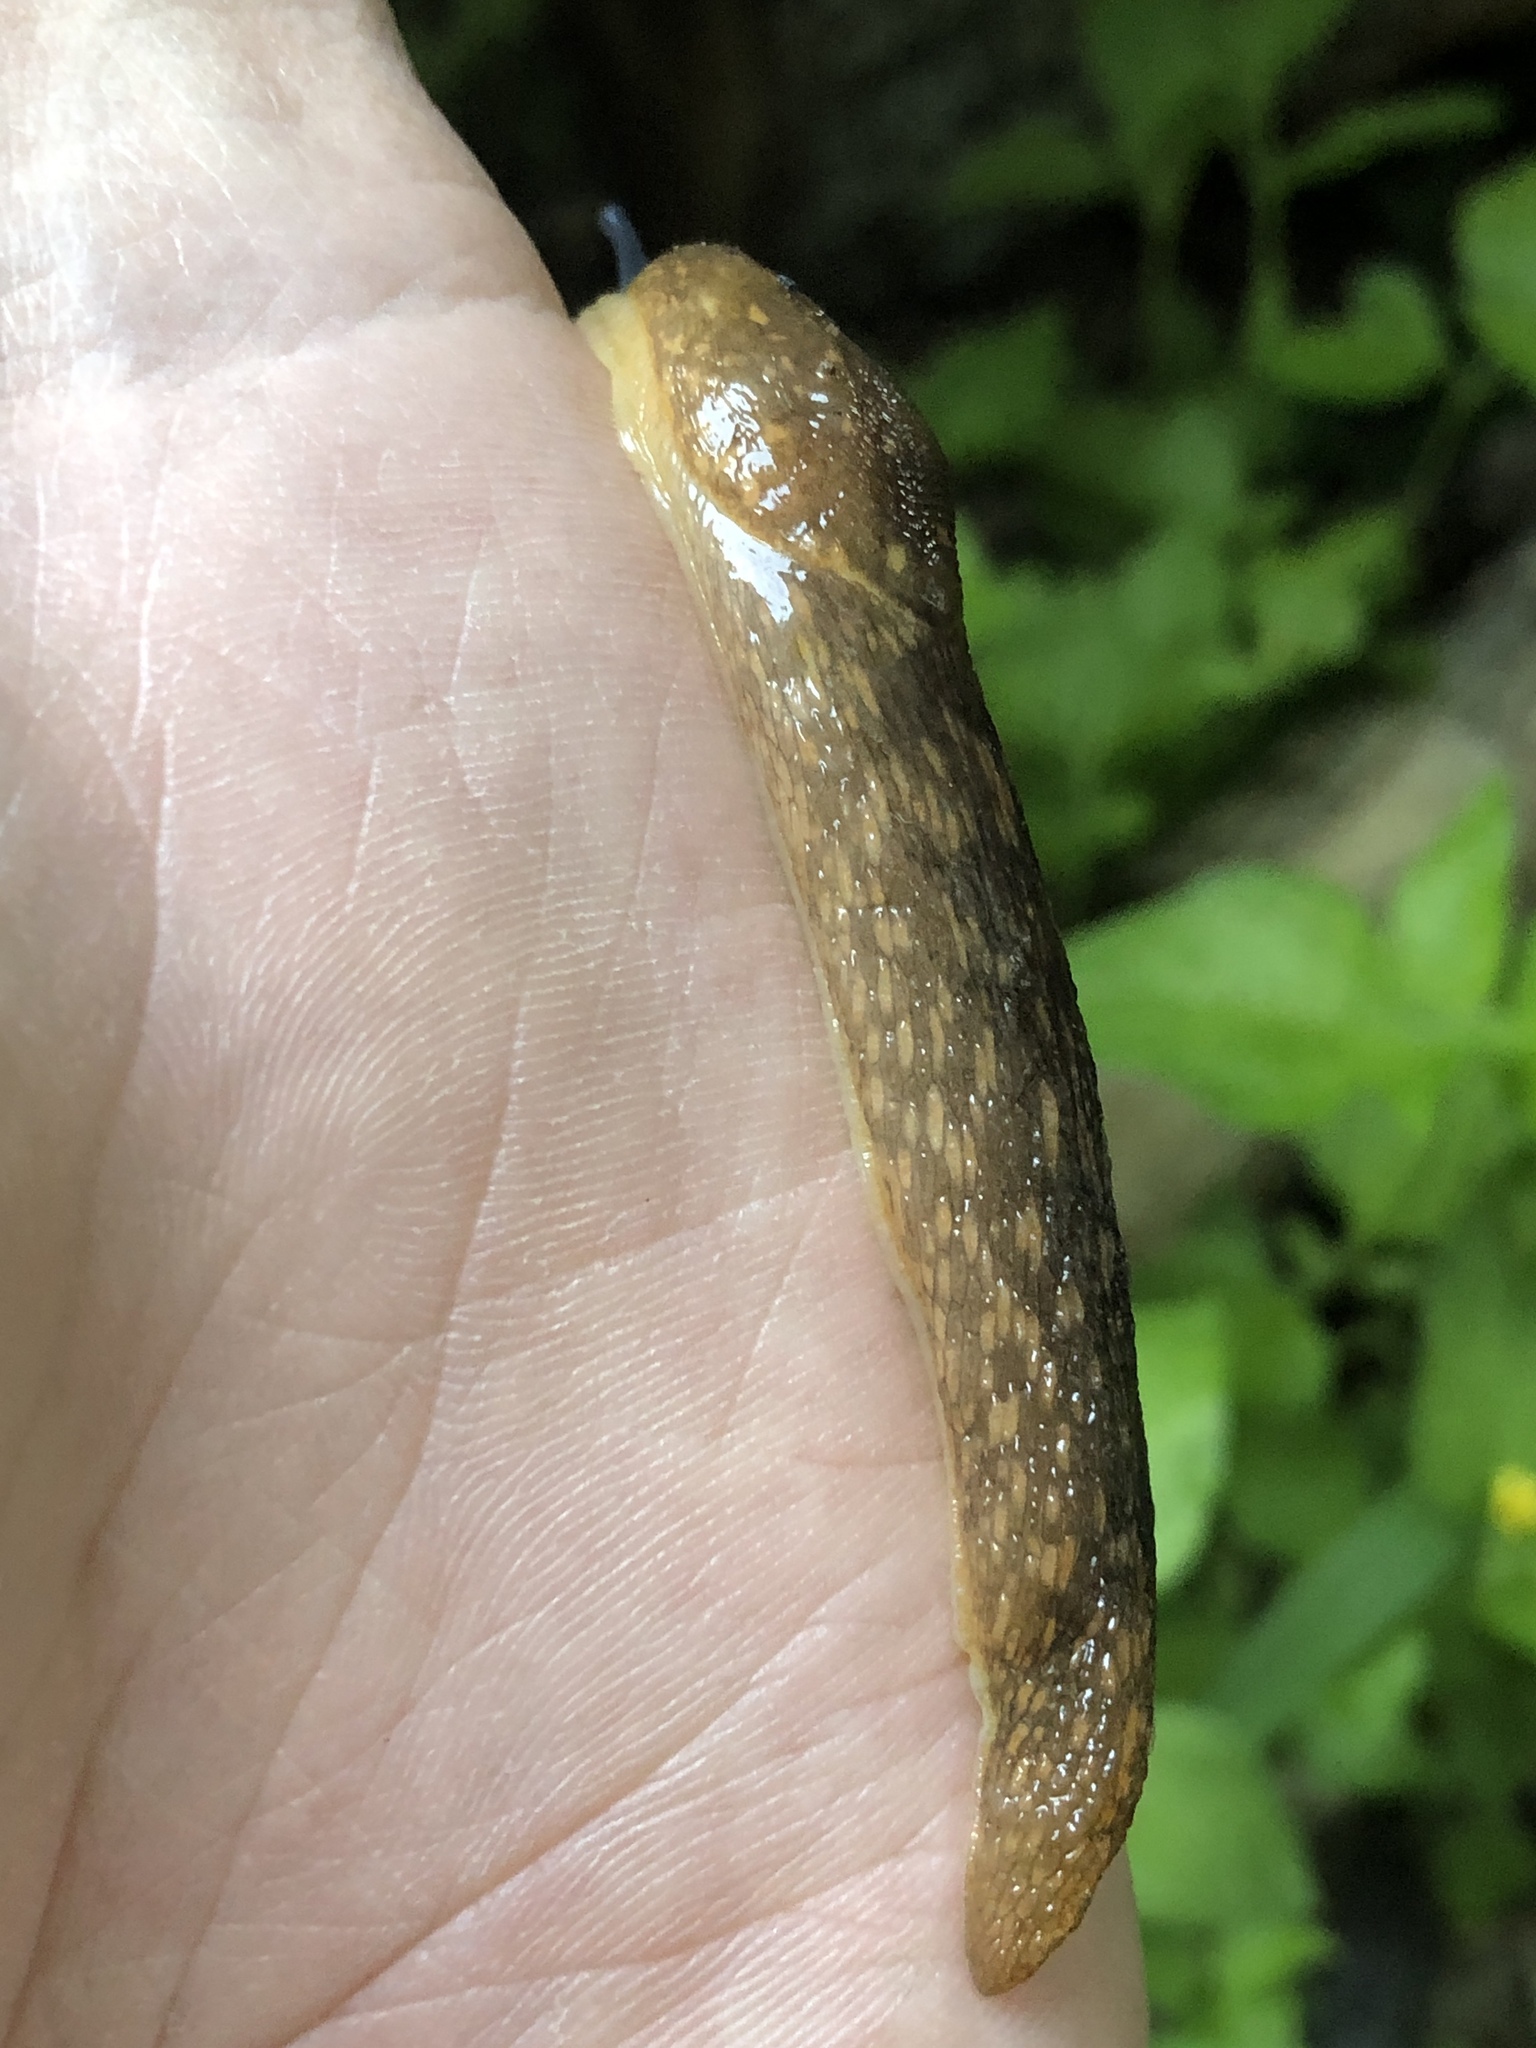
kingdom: Animalia
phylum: Mollusca
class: Gastropoda
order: Stylommatophora
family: Limacidae
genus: Limacus
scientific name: Limacus flavus
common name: Yellow gardenslug
